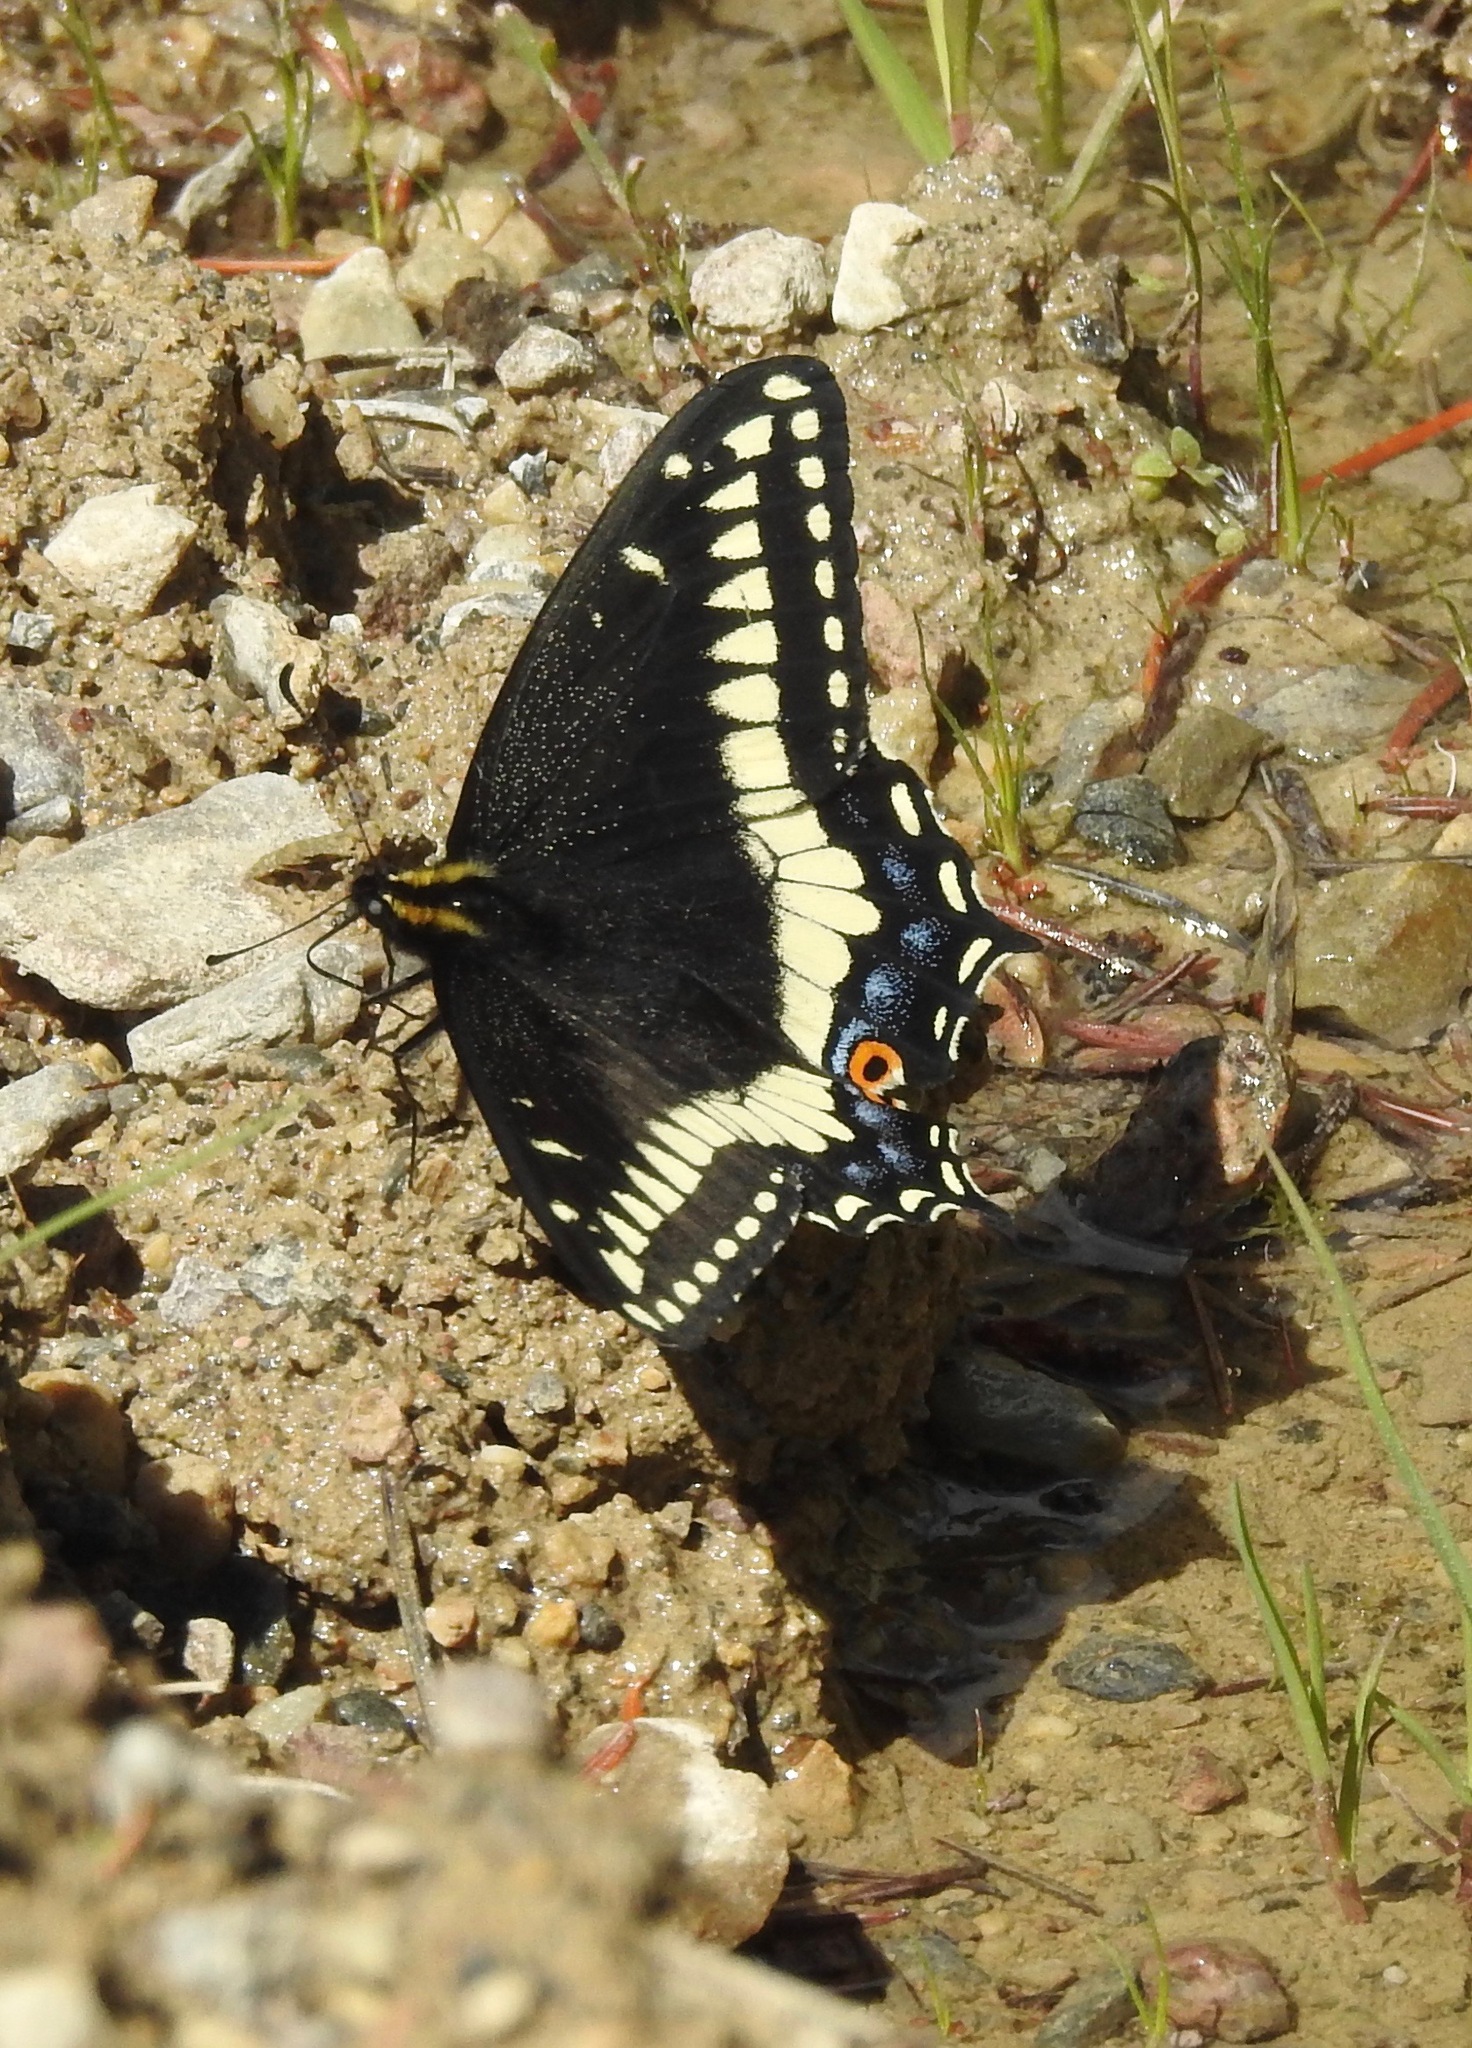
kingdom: Animalia
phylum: Arthropoda
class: Insecta
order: Lepidoptera
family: Papilionidae
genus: Papilio
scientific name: Papilio indra
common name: Cliff swallowtail
